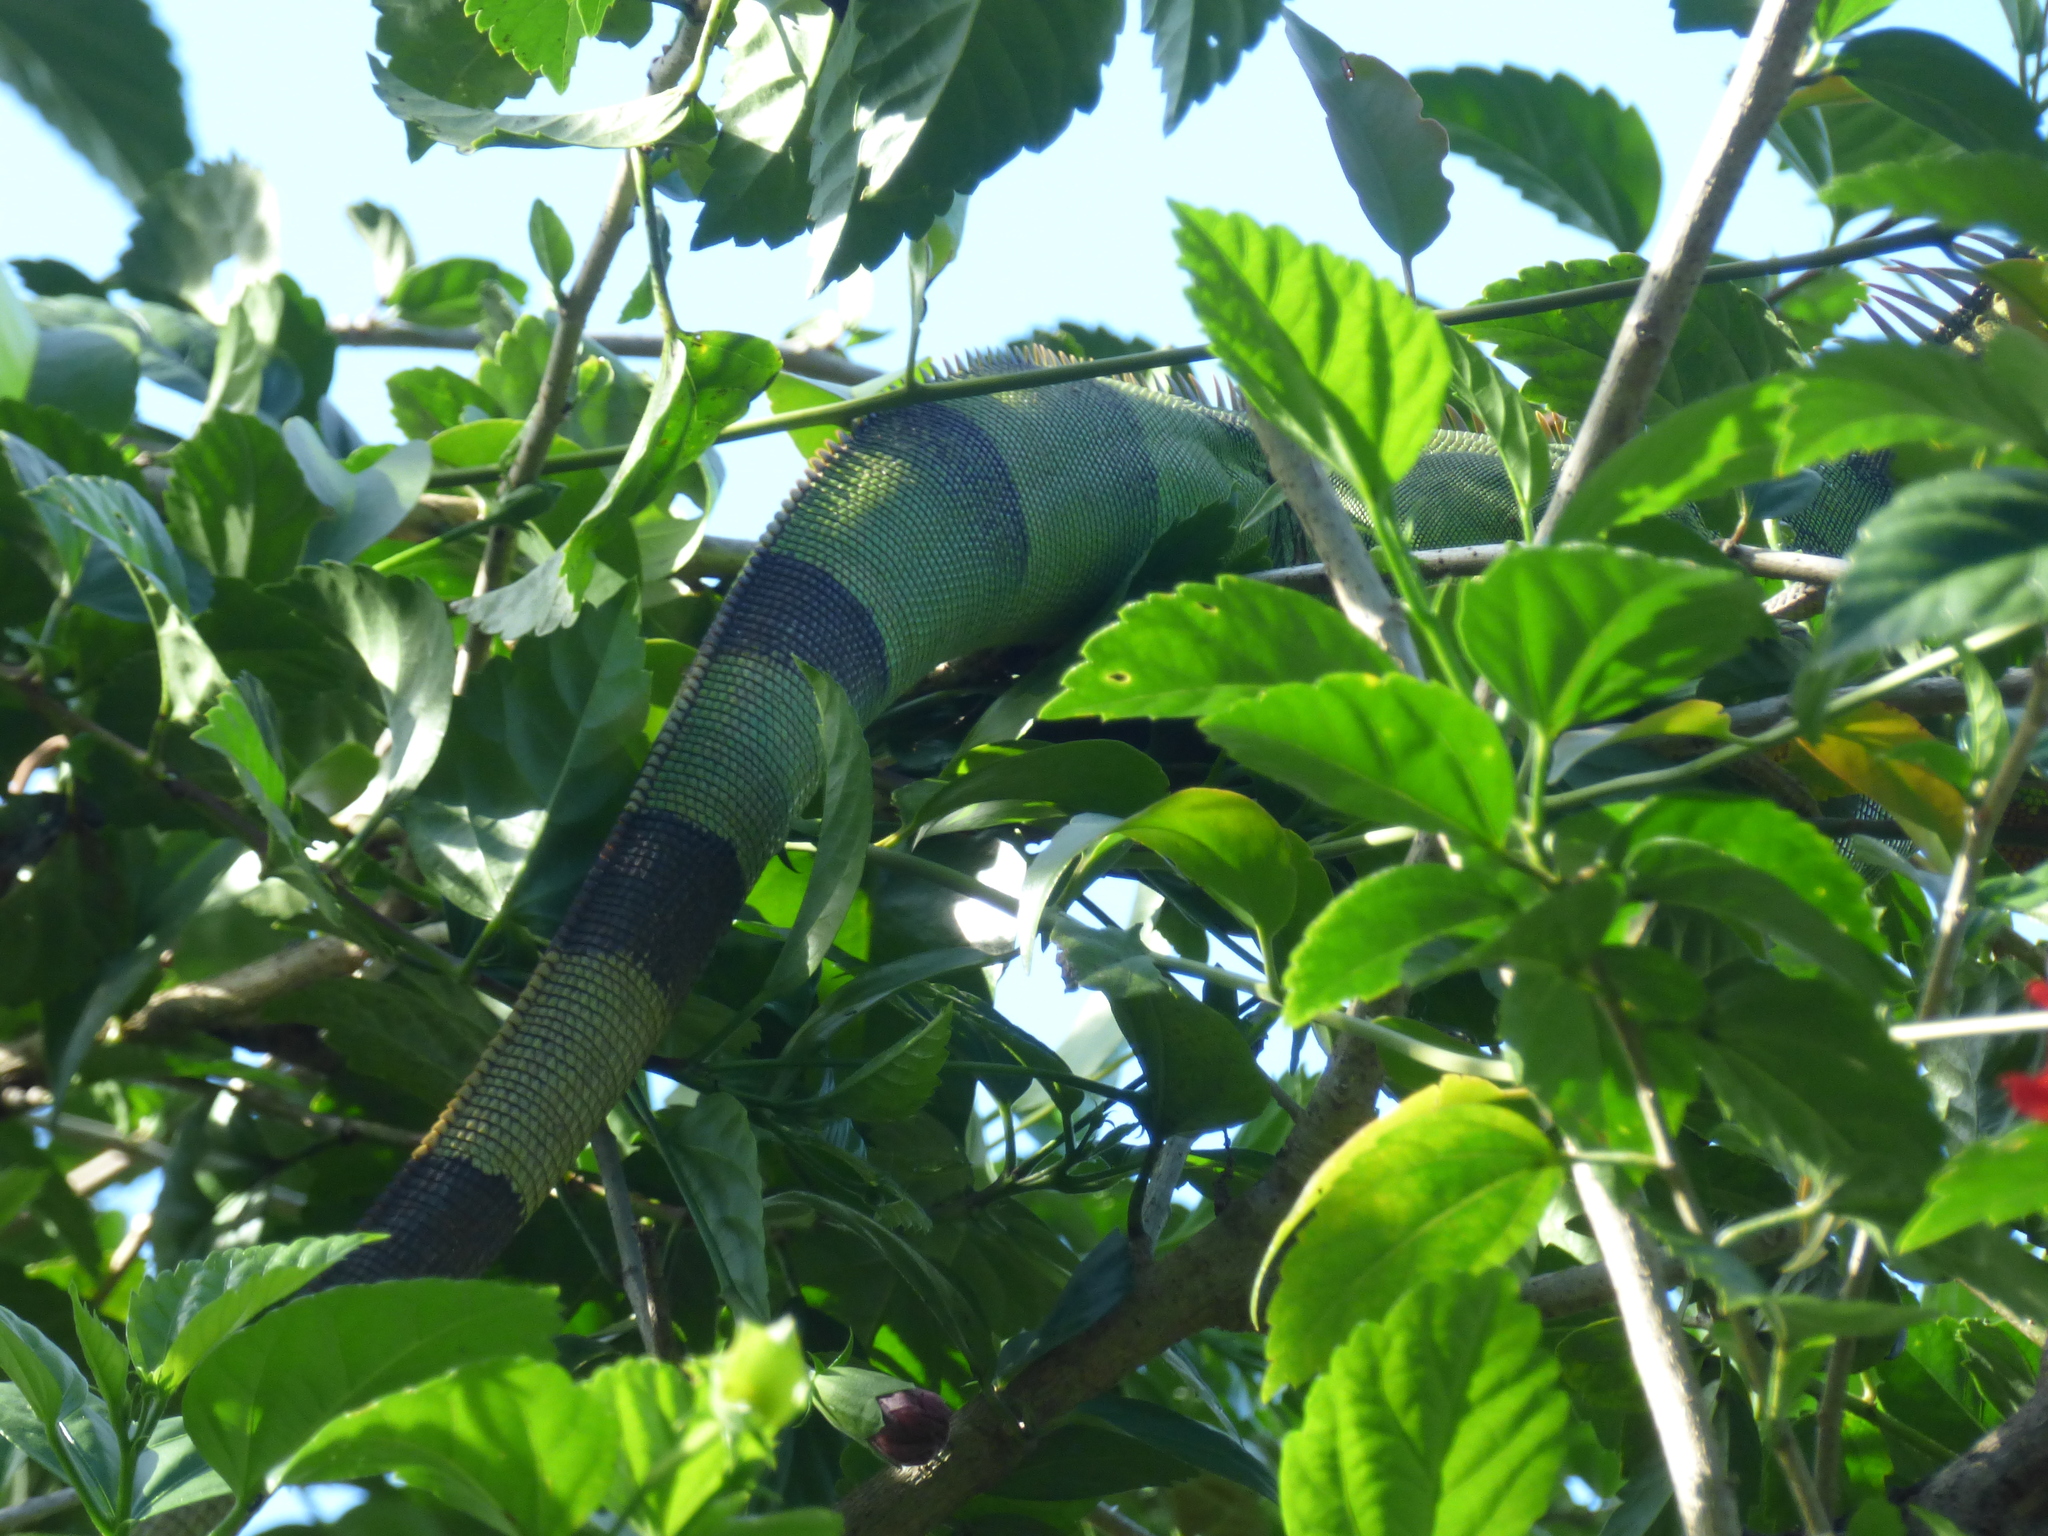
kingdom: Animalia
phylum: Chordata
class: Squamata
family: Iguanidae
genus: Iguana
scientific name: Iguana iguana
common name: Green iguana
